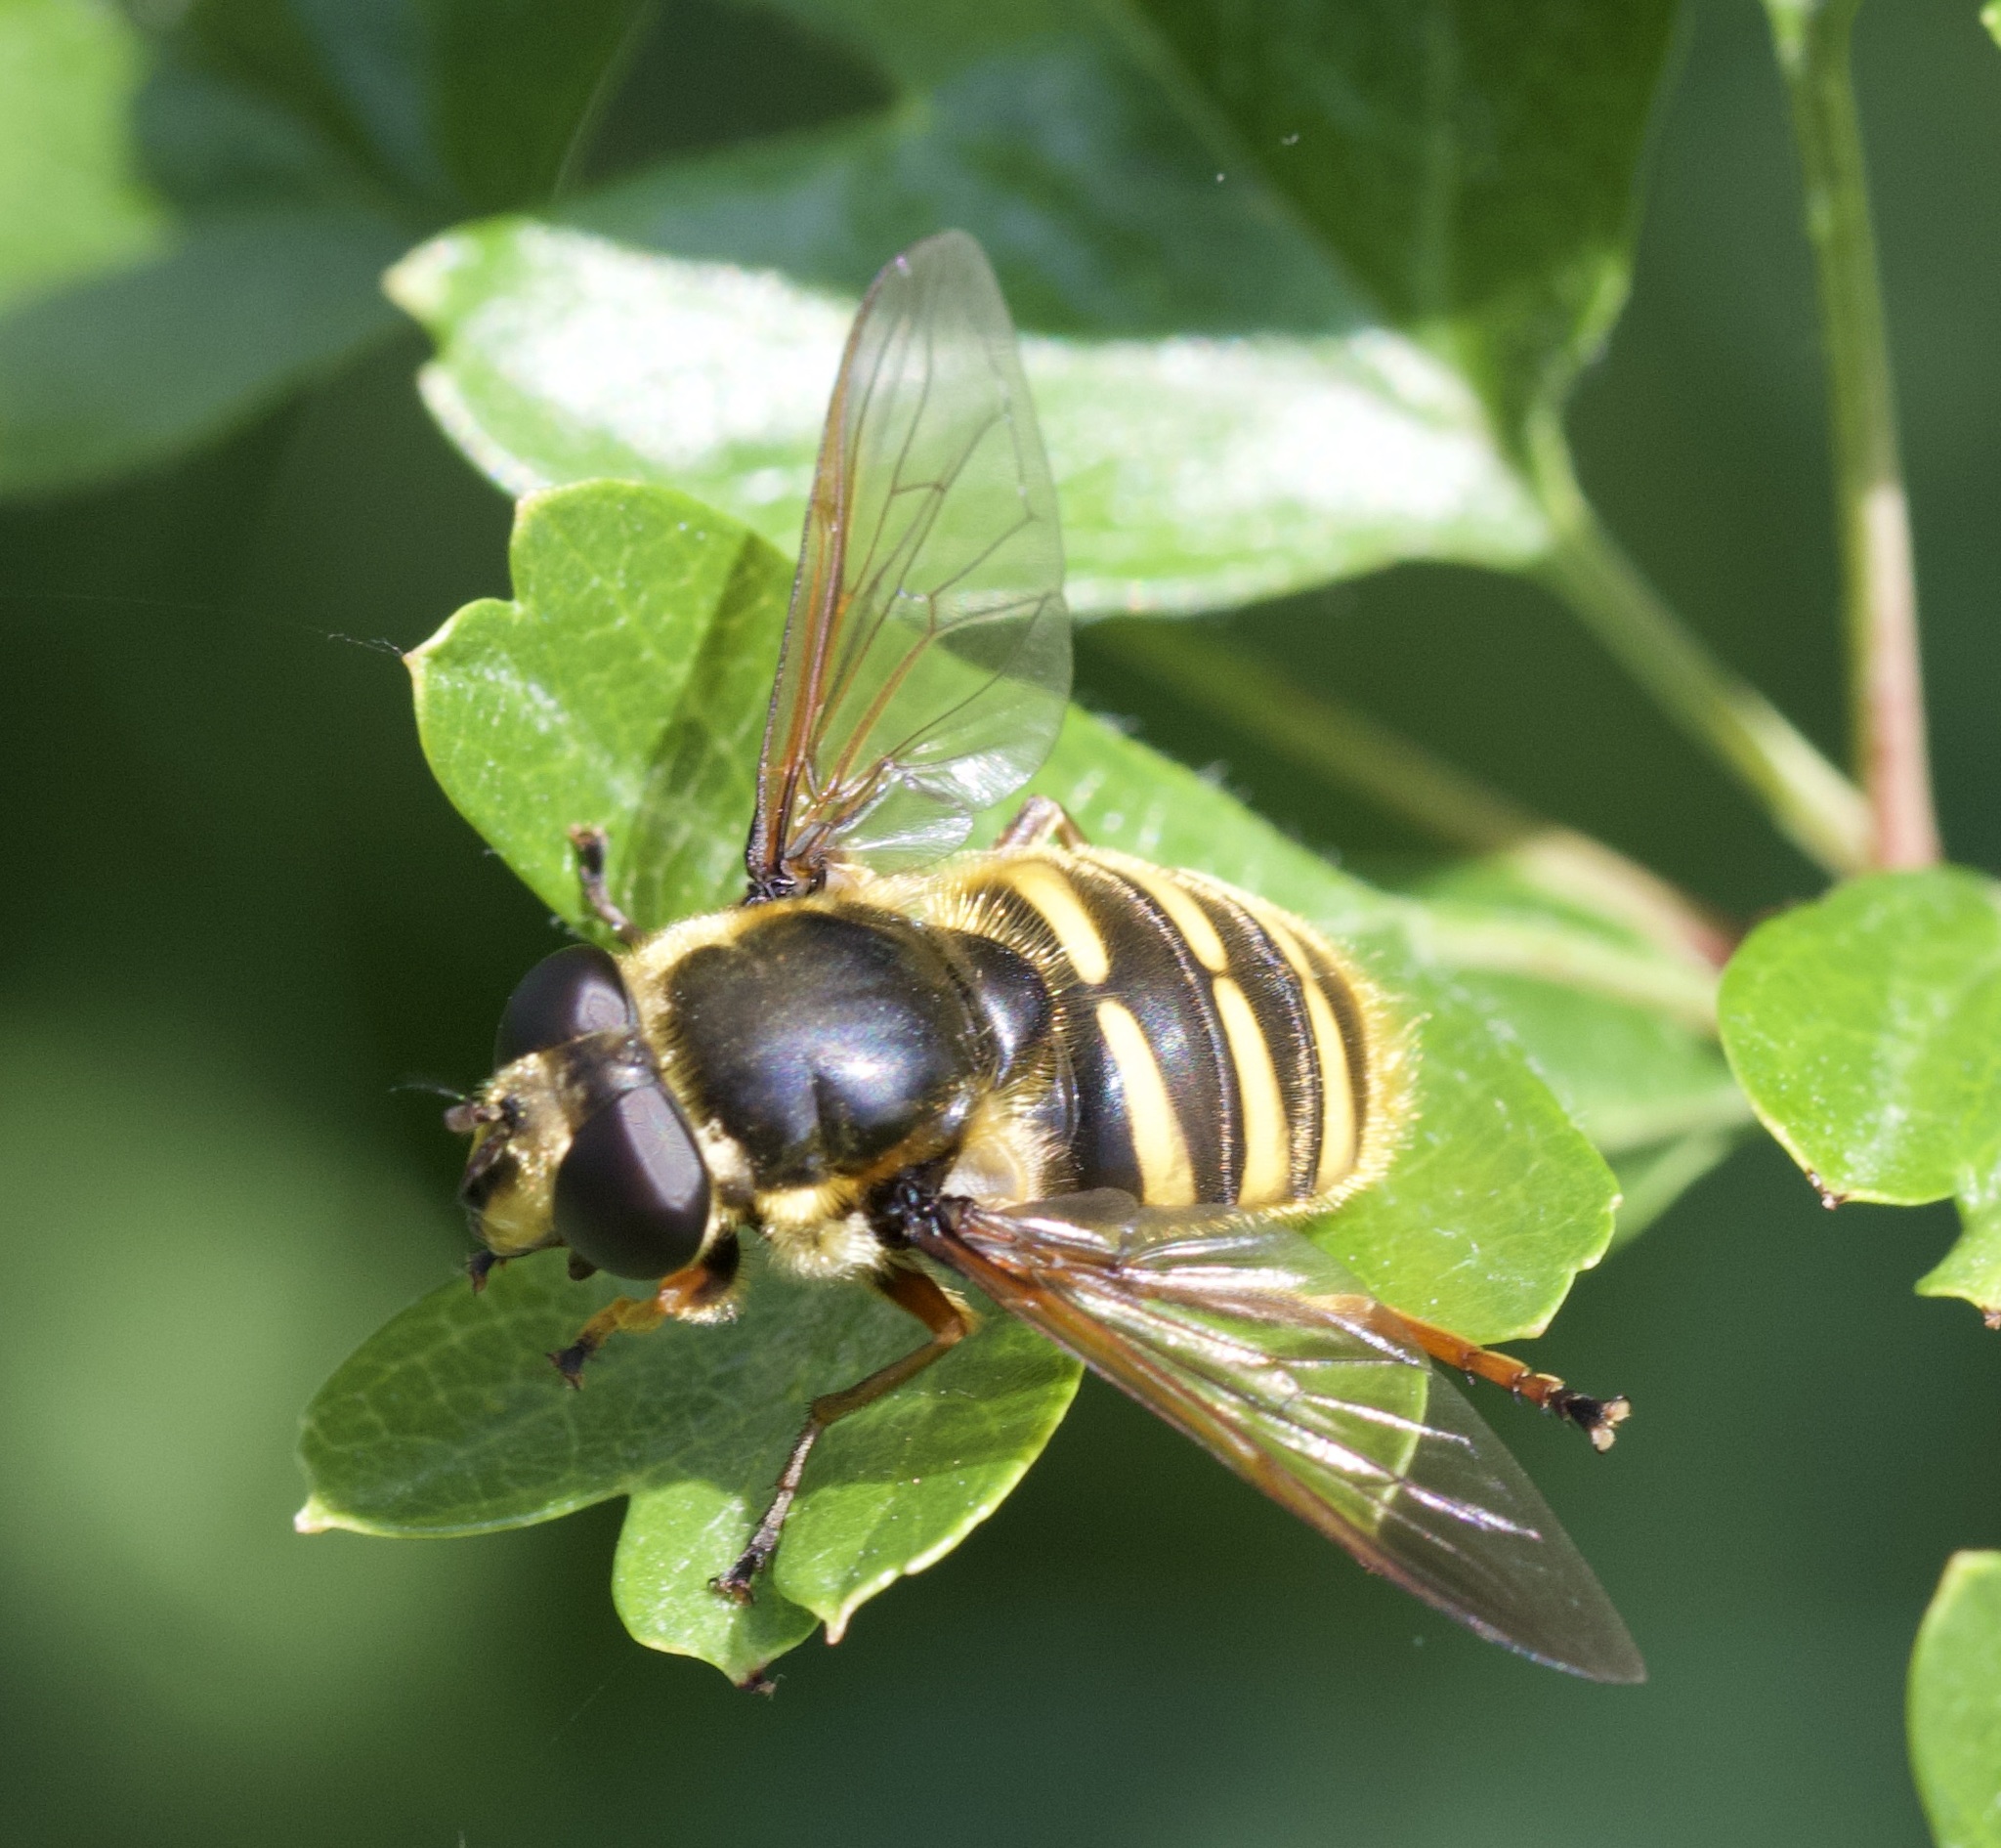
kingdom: Animalia
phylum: Arthropoda
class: Insecta
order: Diptera
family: Syrphidae
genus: Sericomyia
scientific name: Sericomyia silentis
